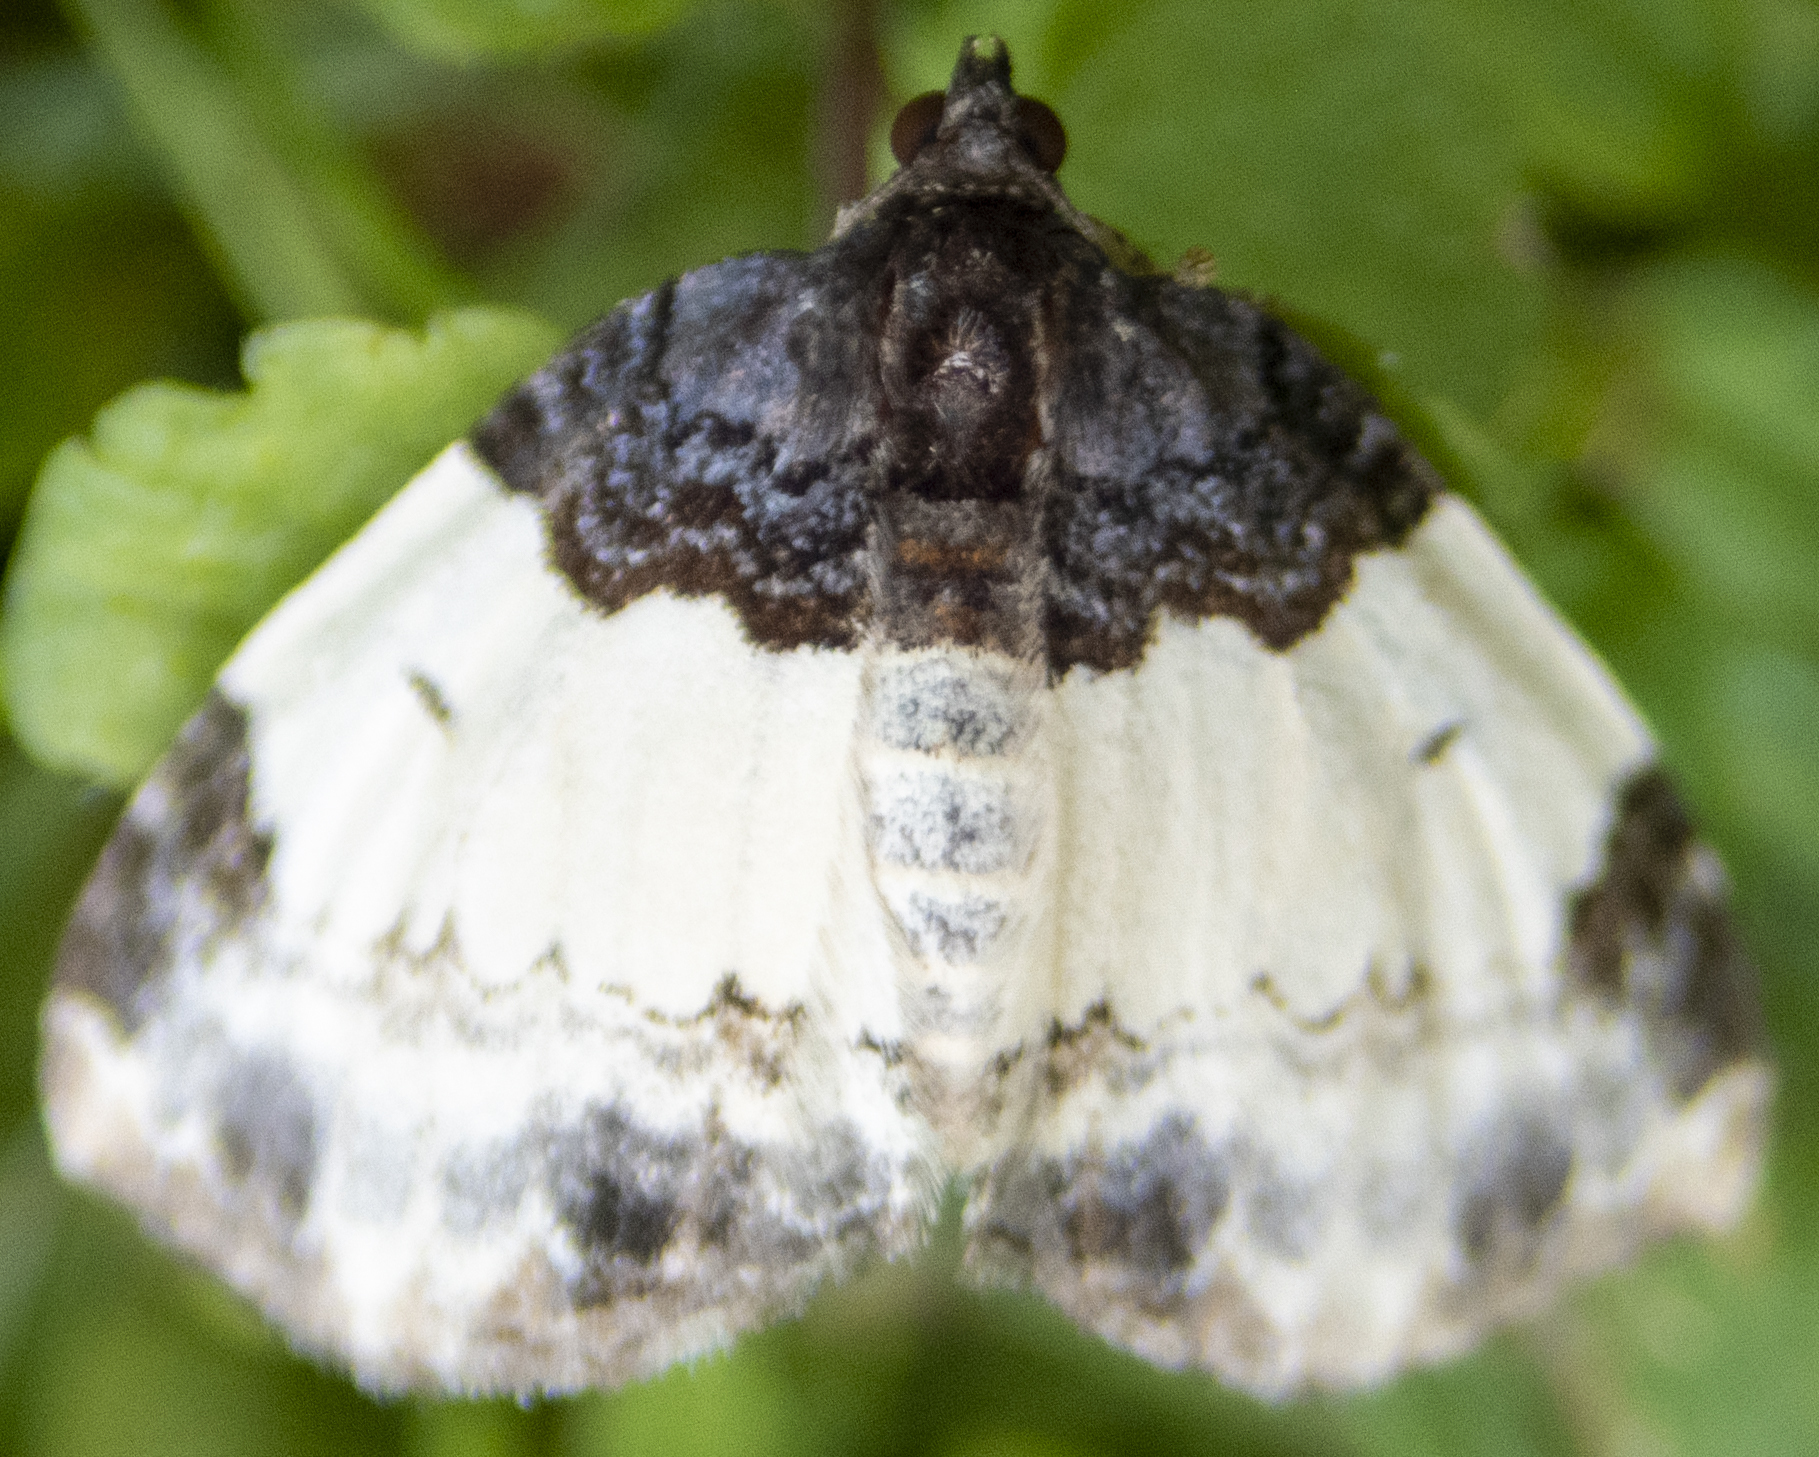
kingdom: Animalia
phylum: Arthropoda
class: Insecta
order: Lepidoptera
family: Geometridae
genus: Mesoleuca
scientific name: Mesoleuca ruficillata
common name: White-ribboned carpet moth
